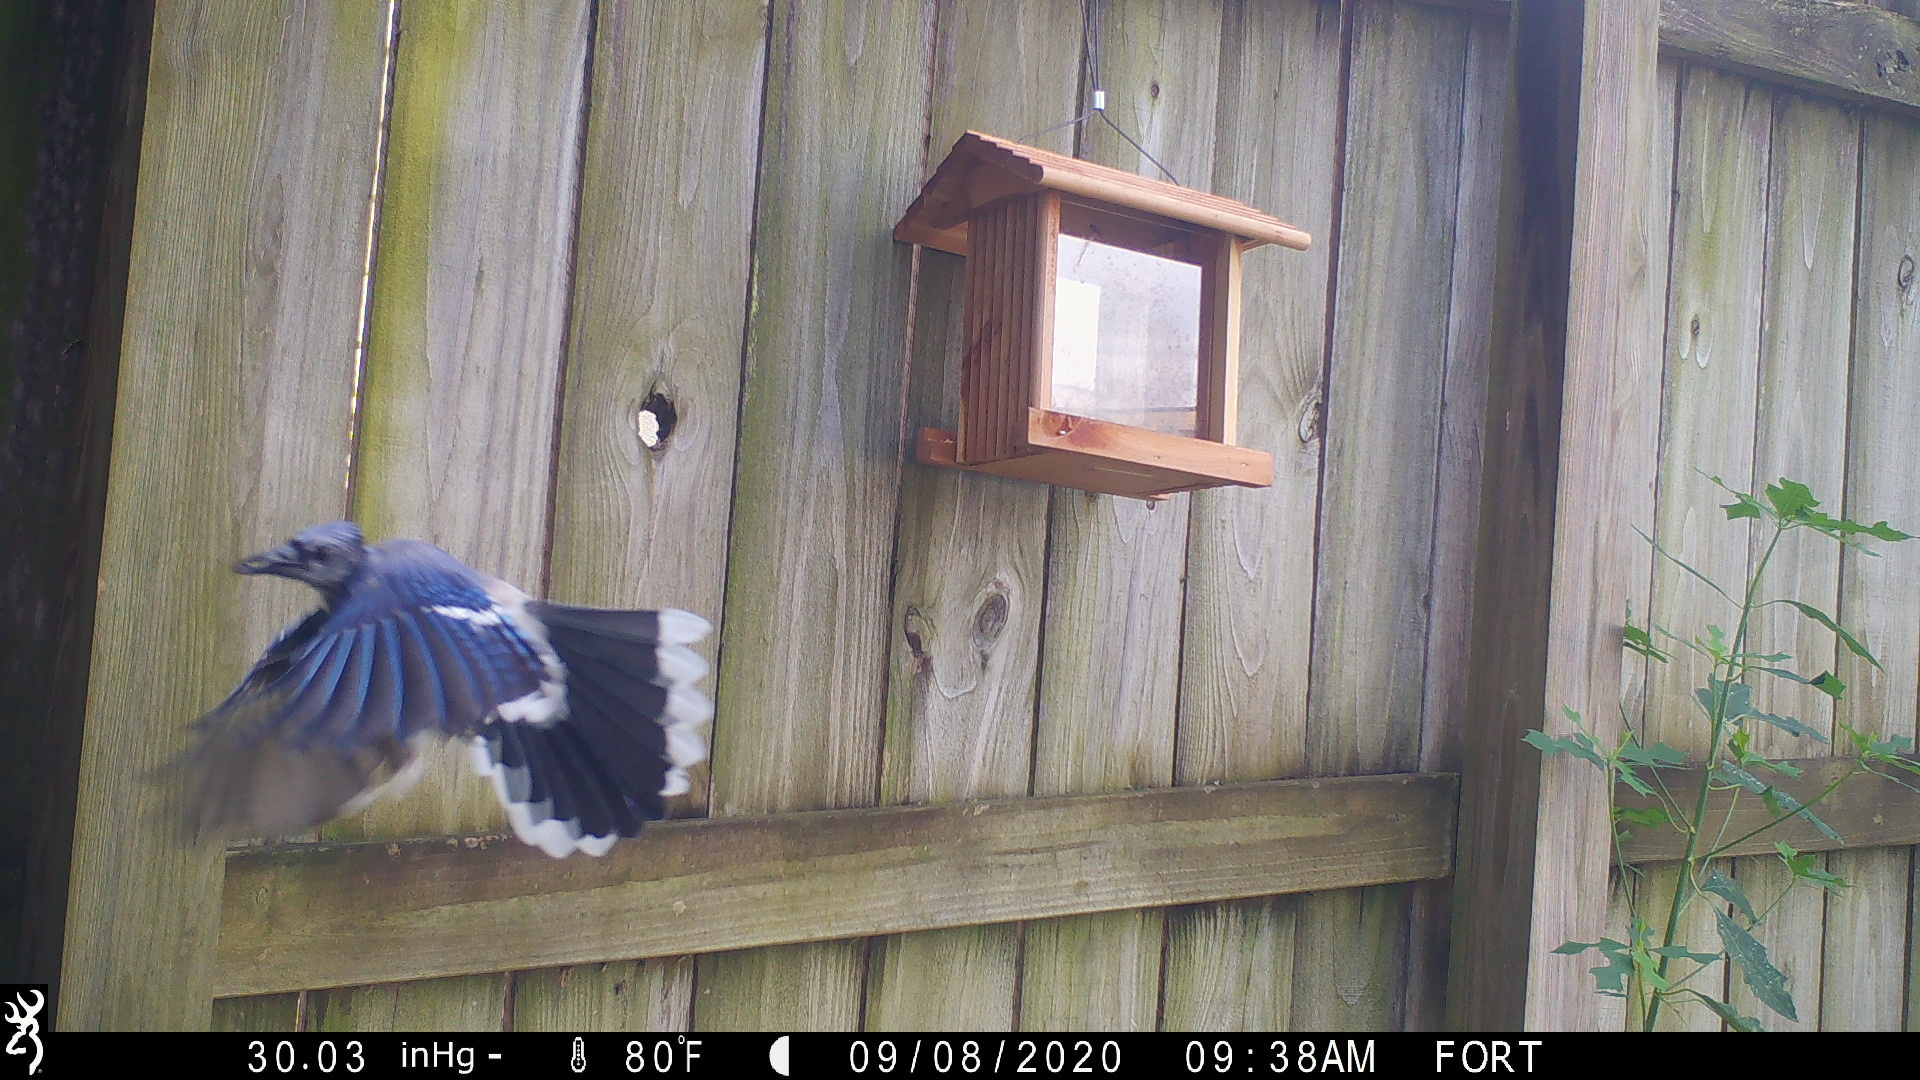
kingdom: Animalia
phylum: Chordata
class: Aves
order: Passeriformes
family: Corvidae
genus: Cyanocitta
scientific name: Cyanocitta cristata
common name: Blue jay
